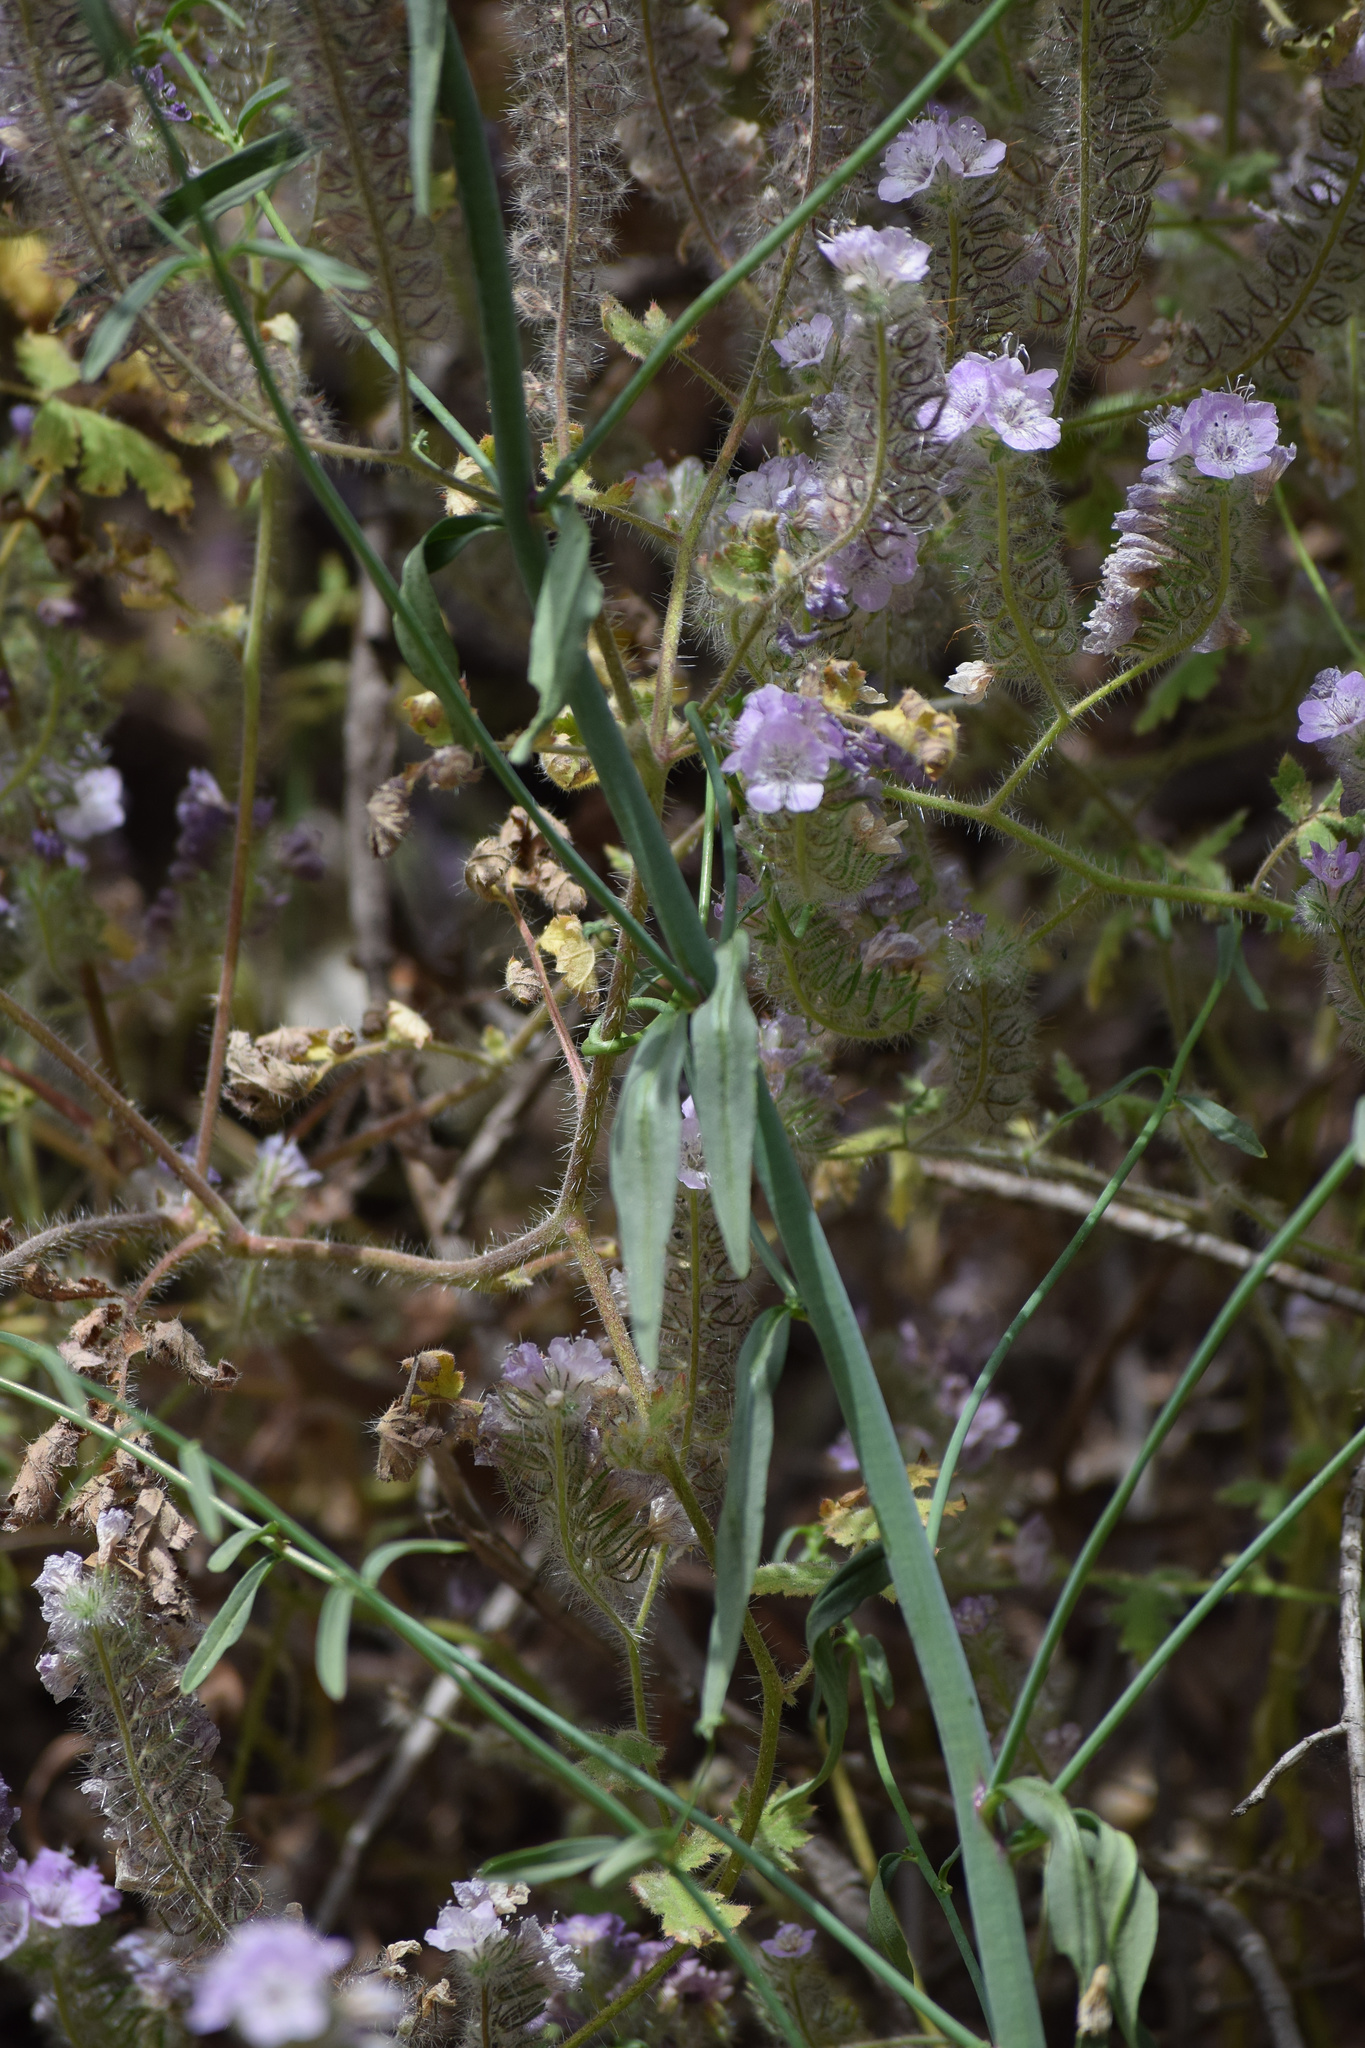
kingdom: Plantae
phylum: Tracheophyta
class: Magnoliopsida
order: Lamiales
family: Plantaginaceae
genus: Sairocarpus
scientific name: Sairocarpus coulterianus
